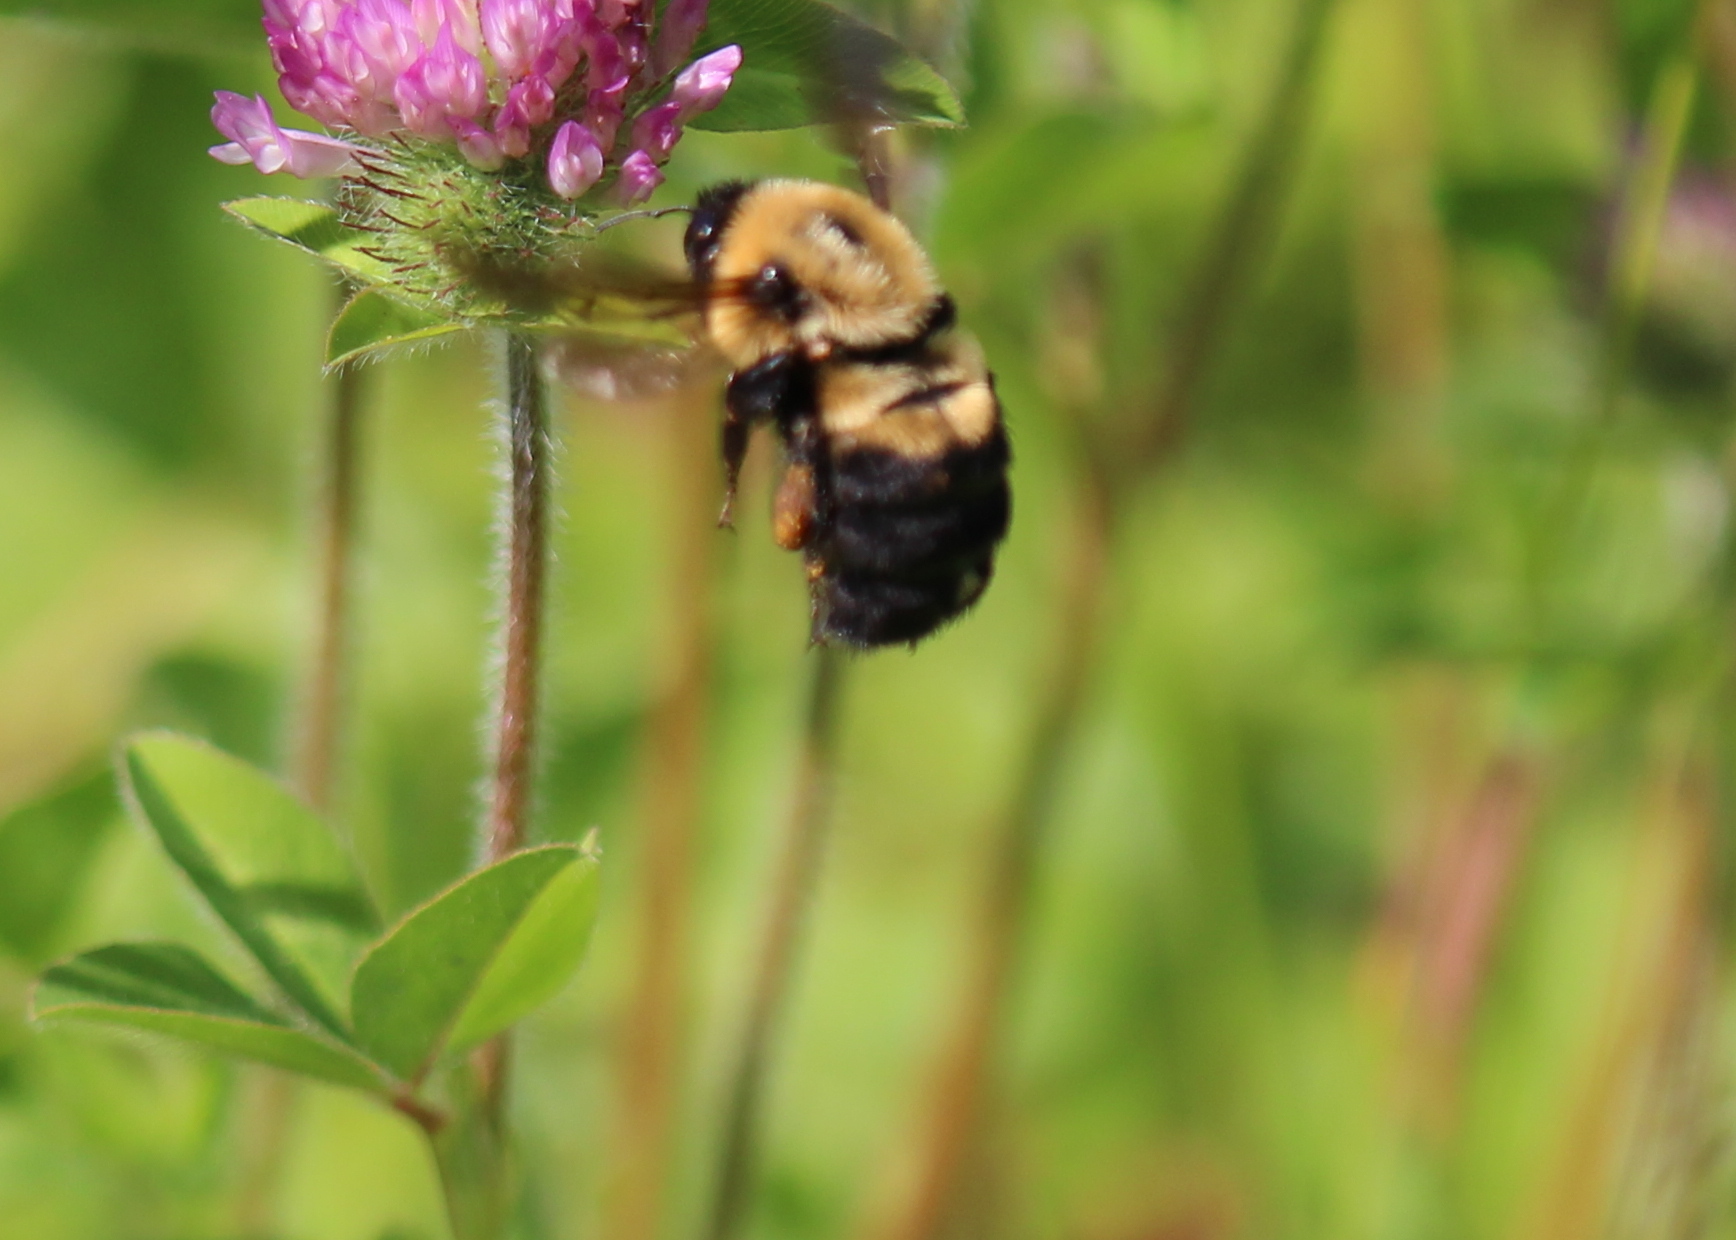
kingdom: Animalia
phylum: Arthropoda
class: Insecta
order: Hymenoptera
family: Apidae
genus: Bombus
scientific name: Bombus griseocollis
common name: Brown-belted bumble bee
